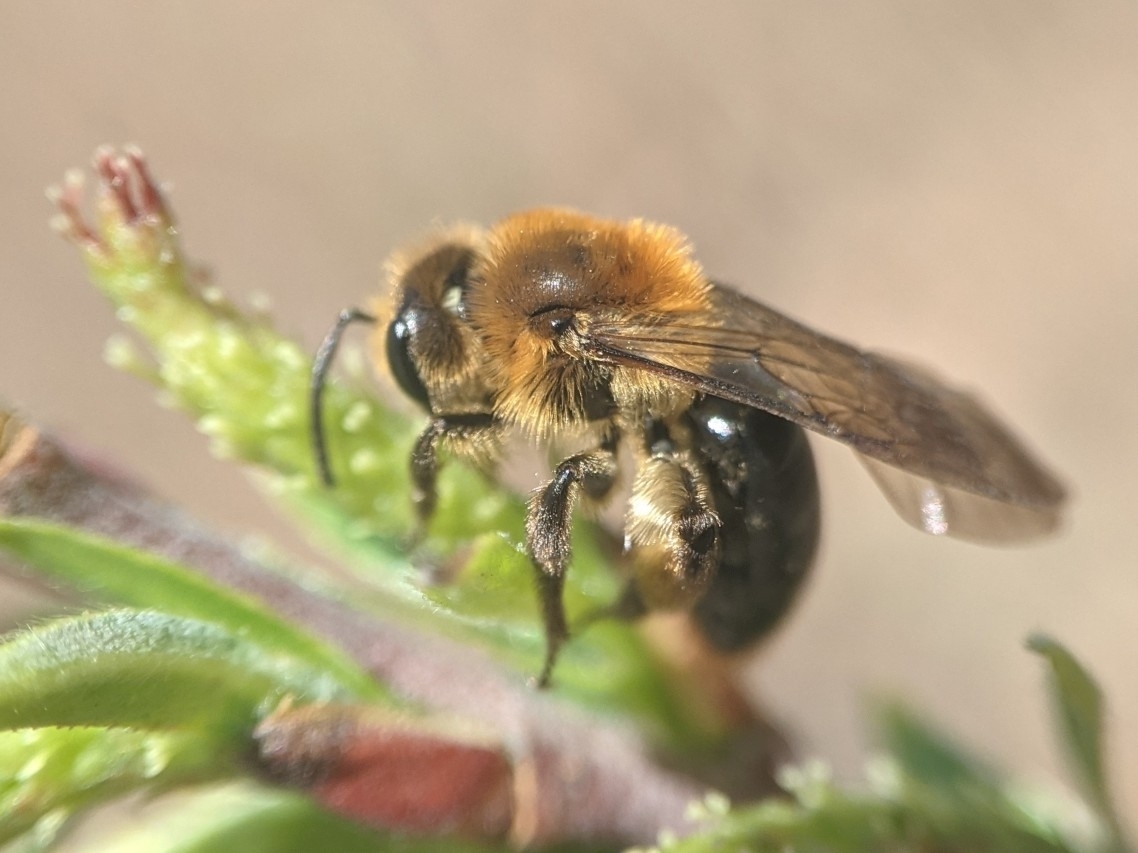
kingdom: Animalia
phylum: Arthropoda
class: Insecta
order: Hymenoptera
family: Andrenidae
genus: Andrena
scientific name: Andrena dunningi
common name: Dunning's miner
